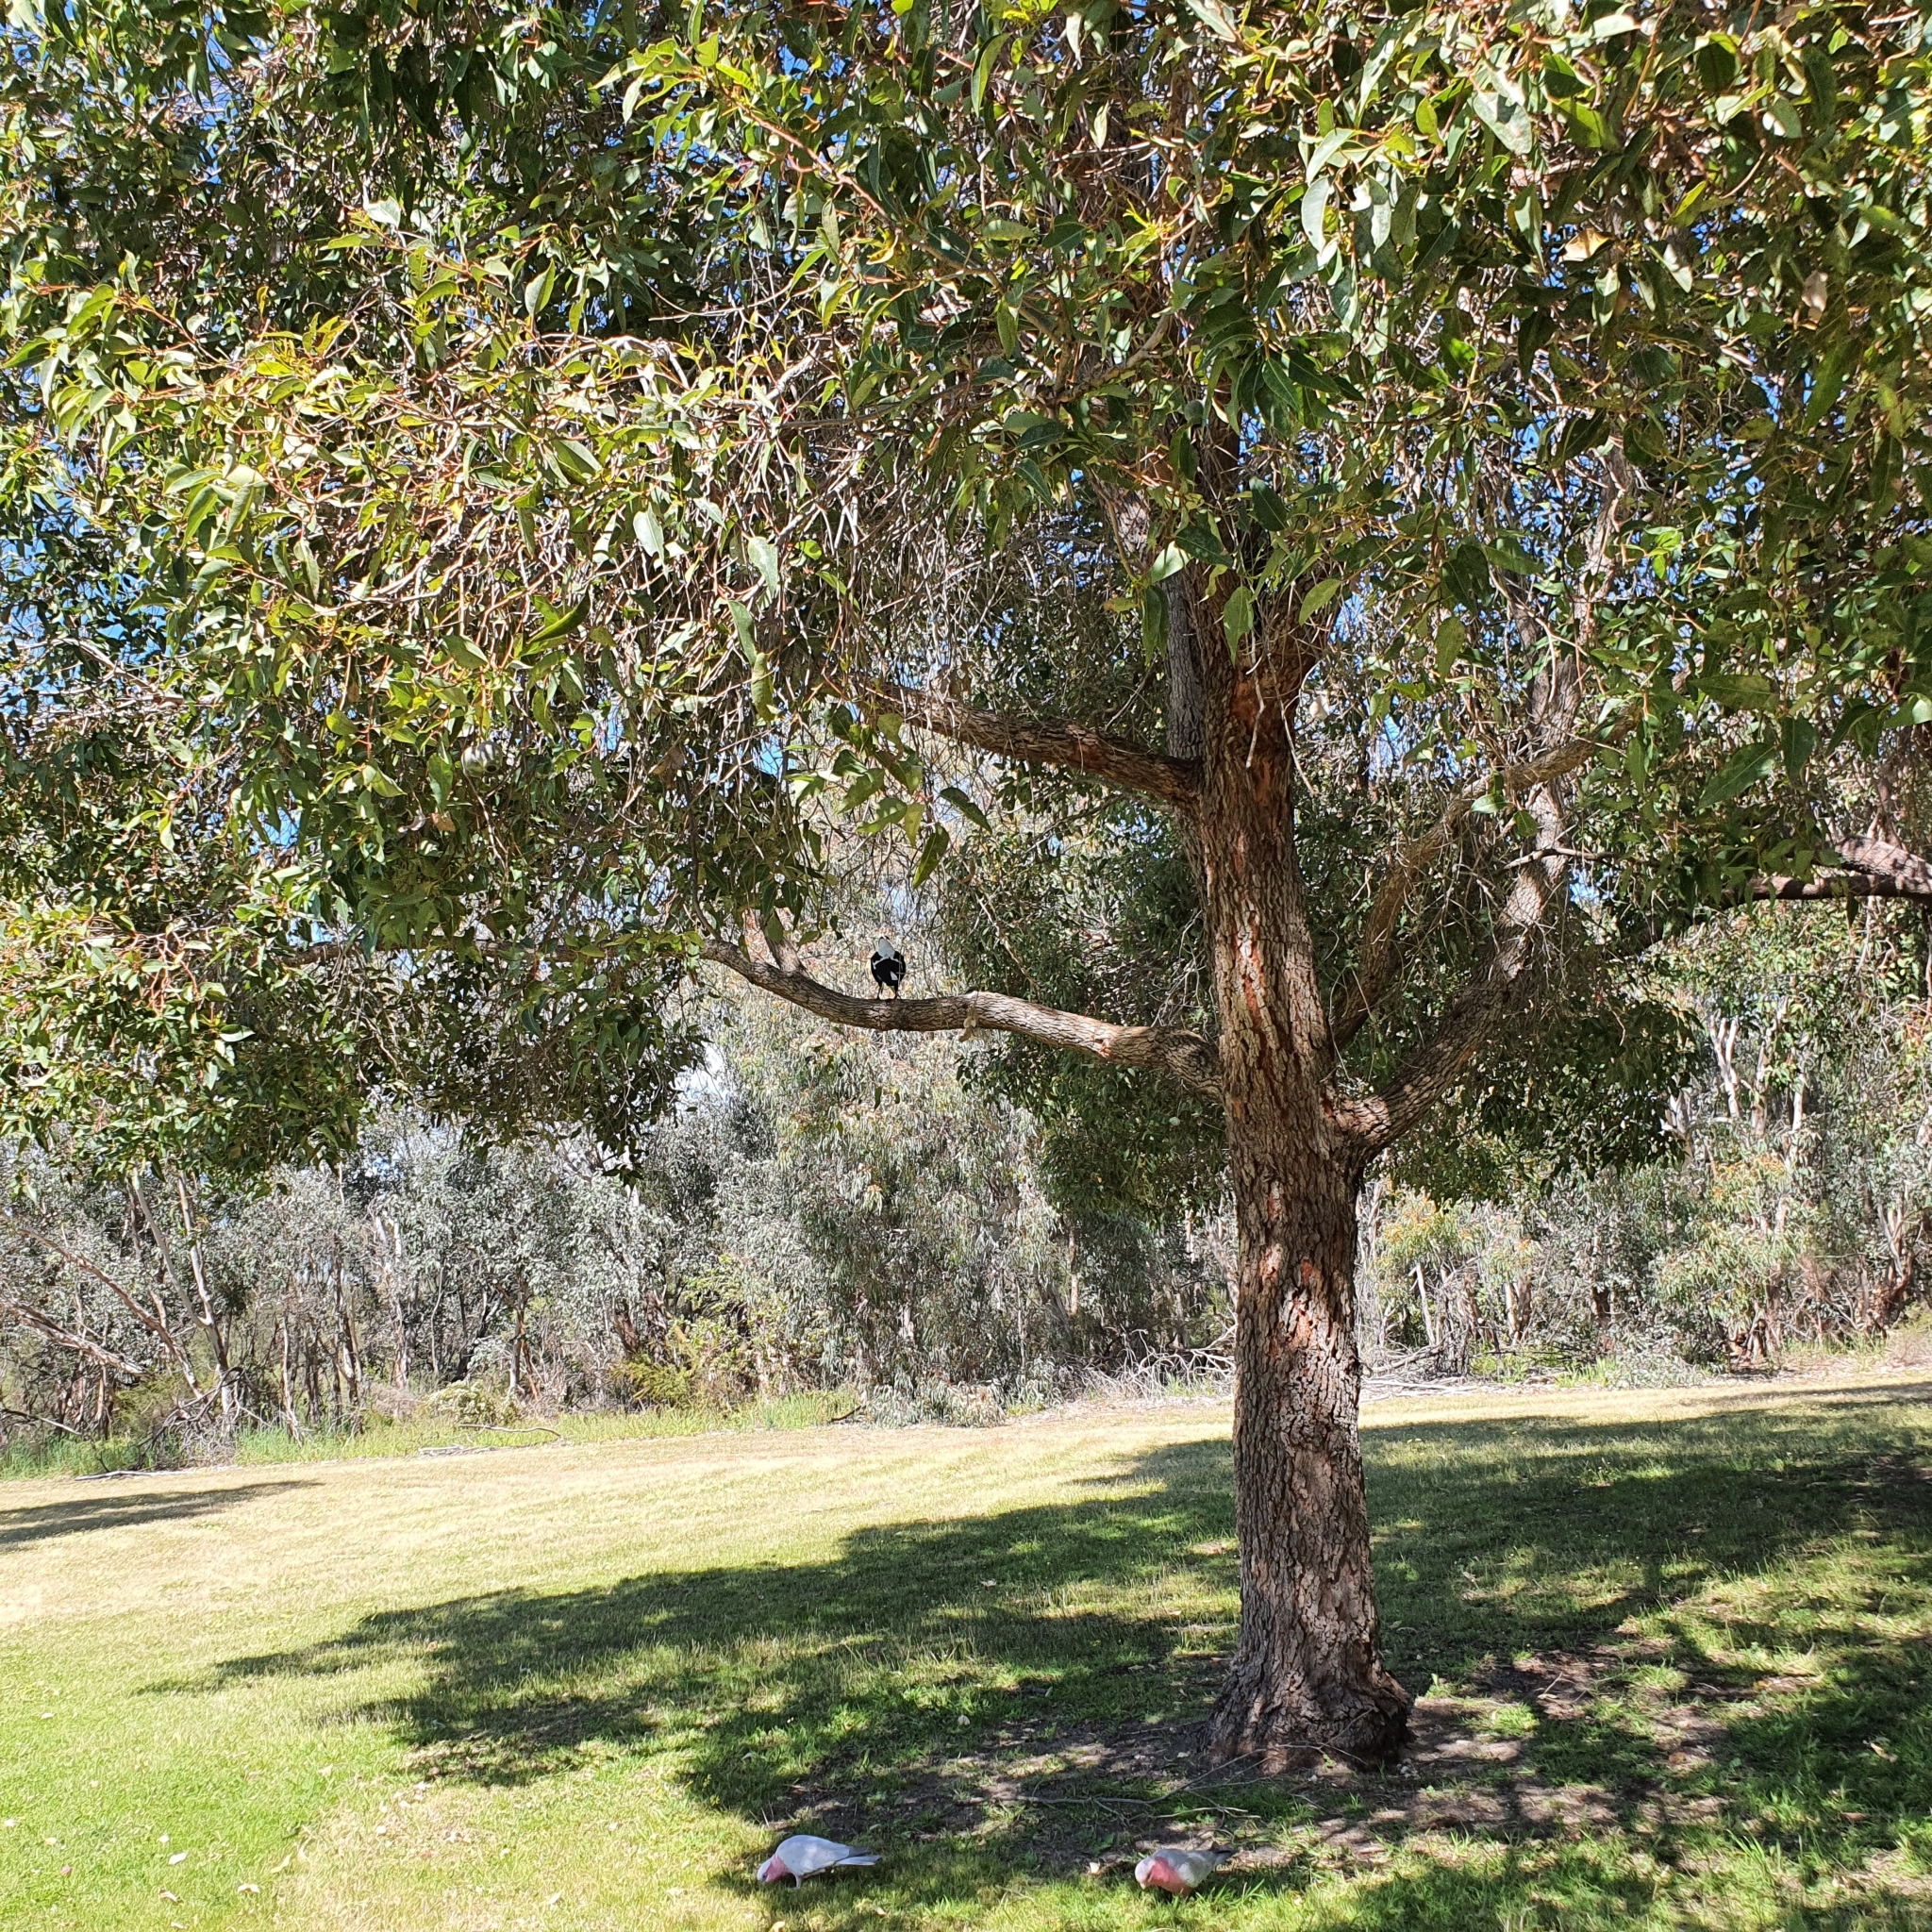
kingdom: Animalia
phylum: Chordata
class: Aves
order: Passeriformes
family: Cracticidae
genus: Gymnorhina
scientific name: Gymnorhina tibicen
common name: Australian magpie
